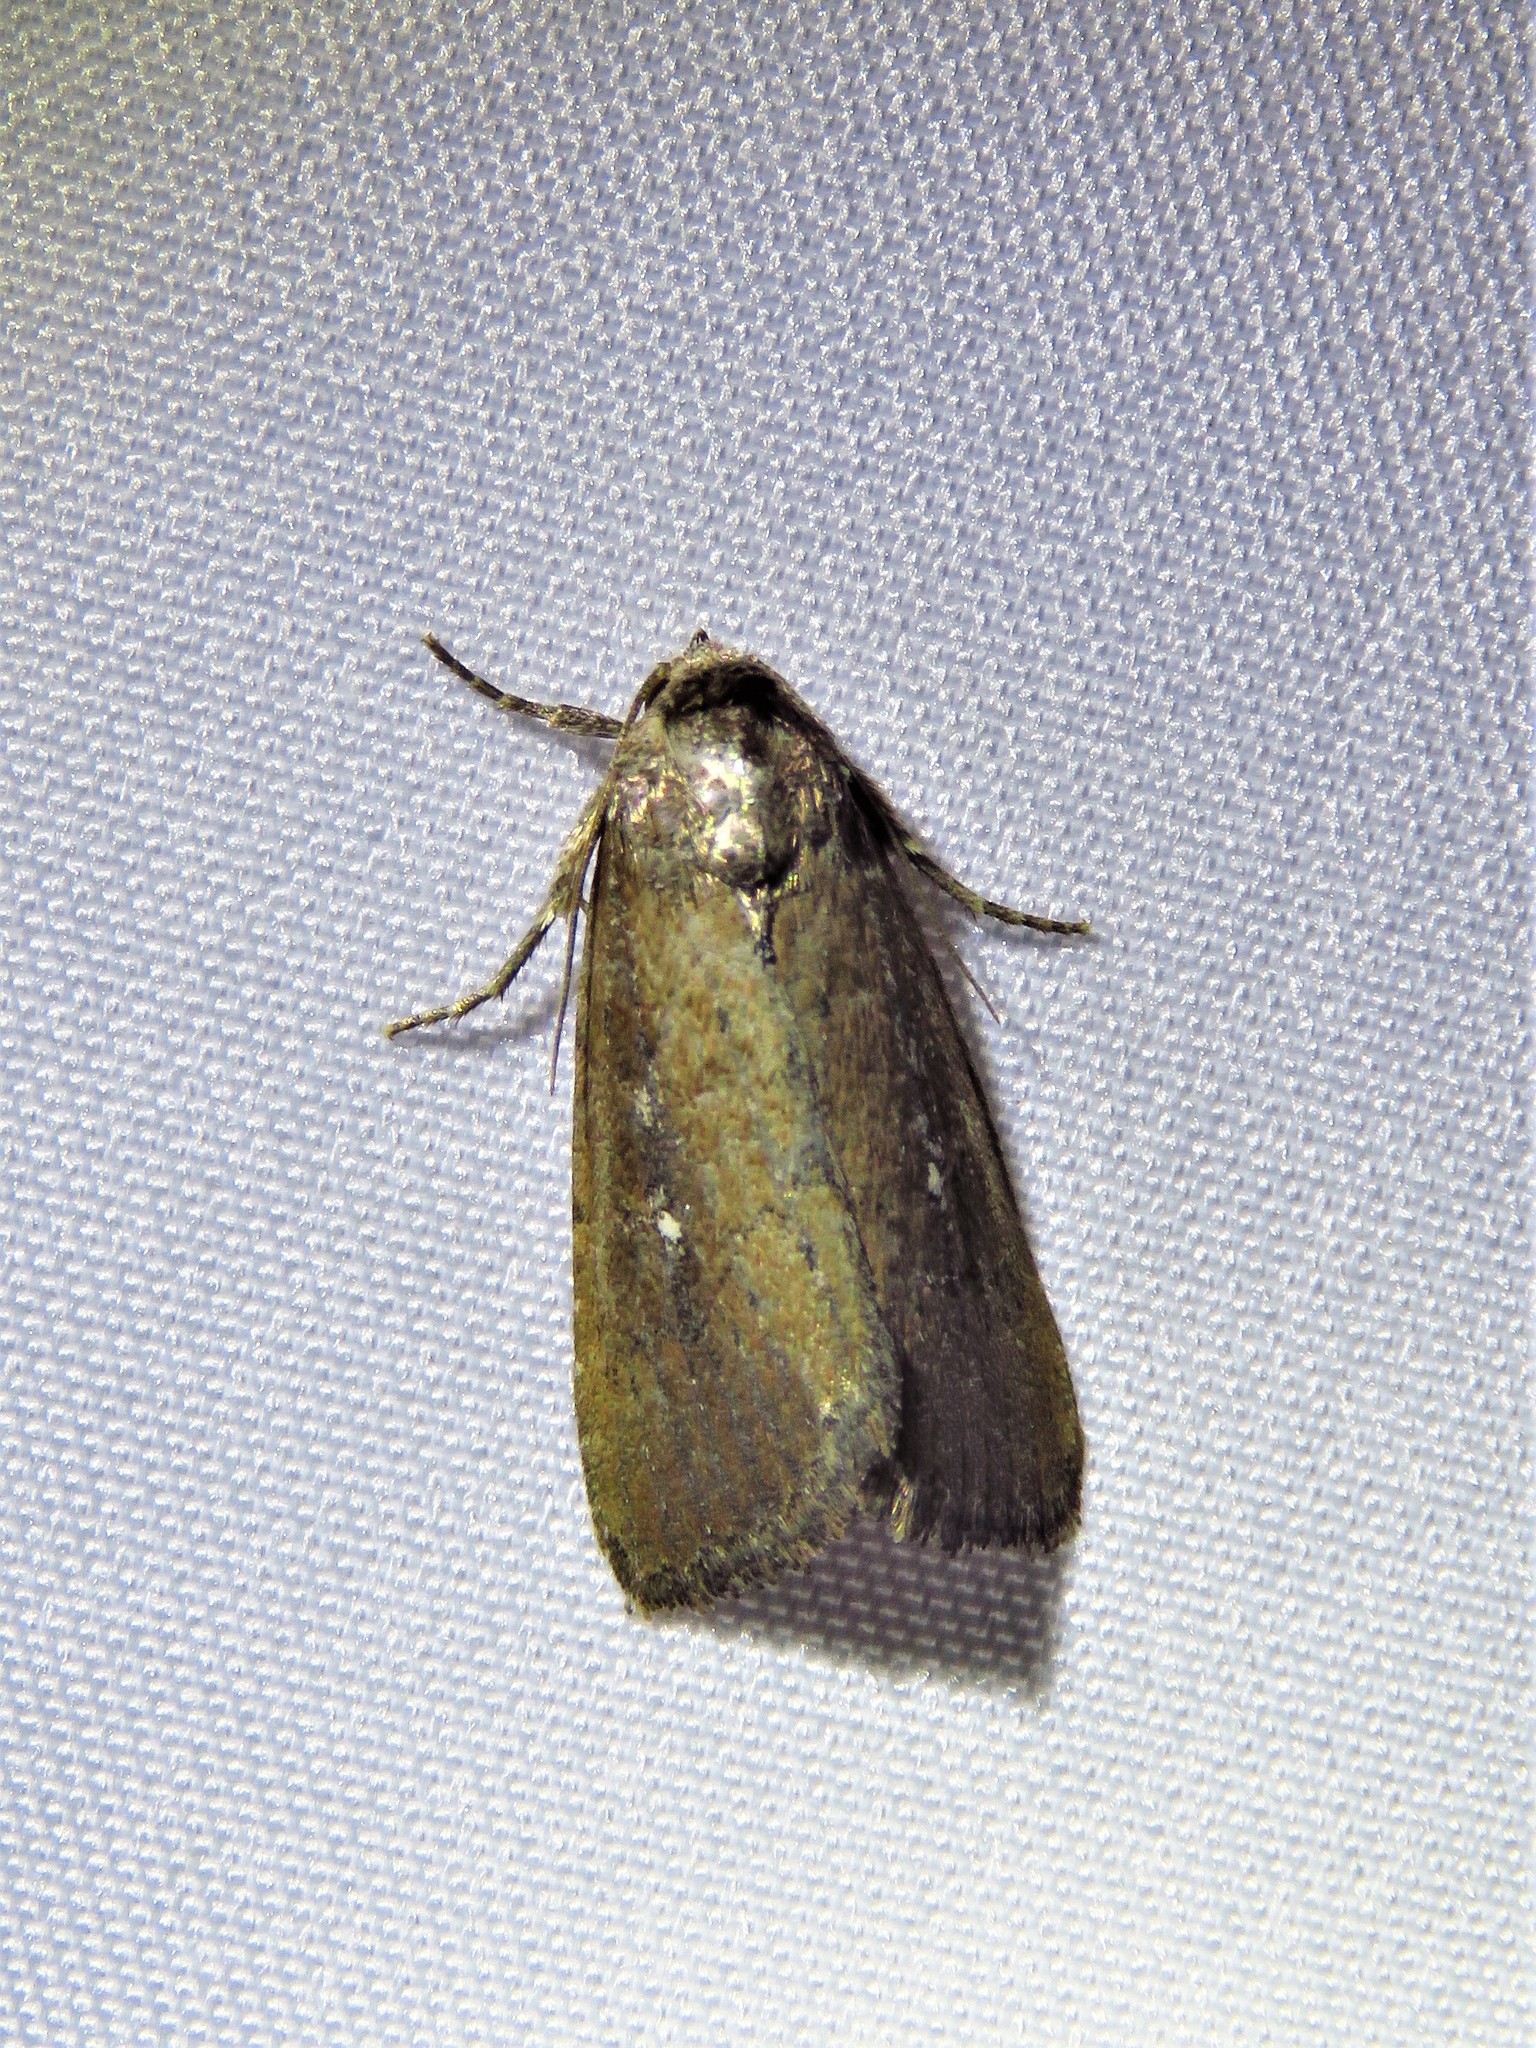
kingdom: Animalia
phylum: Arthropoda
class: Insecta
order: Lepidoptera
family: Noctuidae
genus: Condica
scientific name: Condica videns
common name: White-dotted groundling
